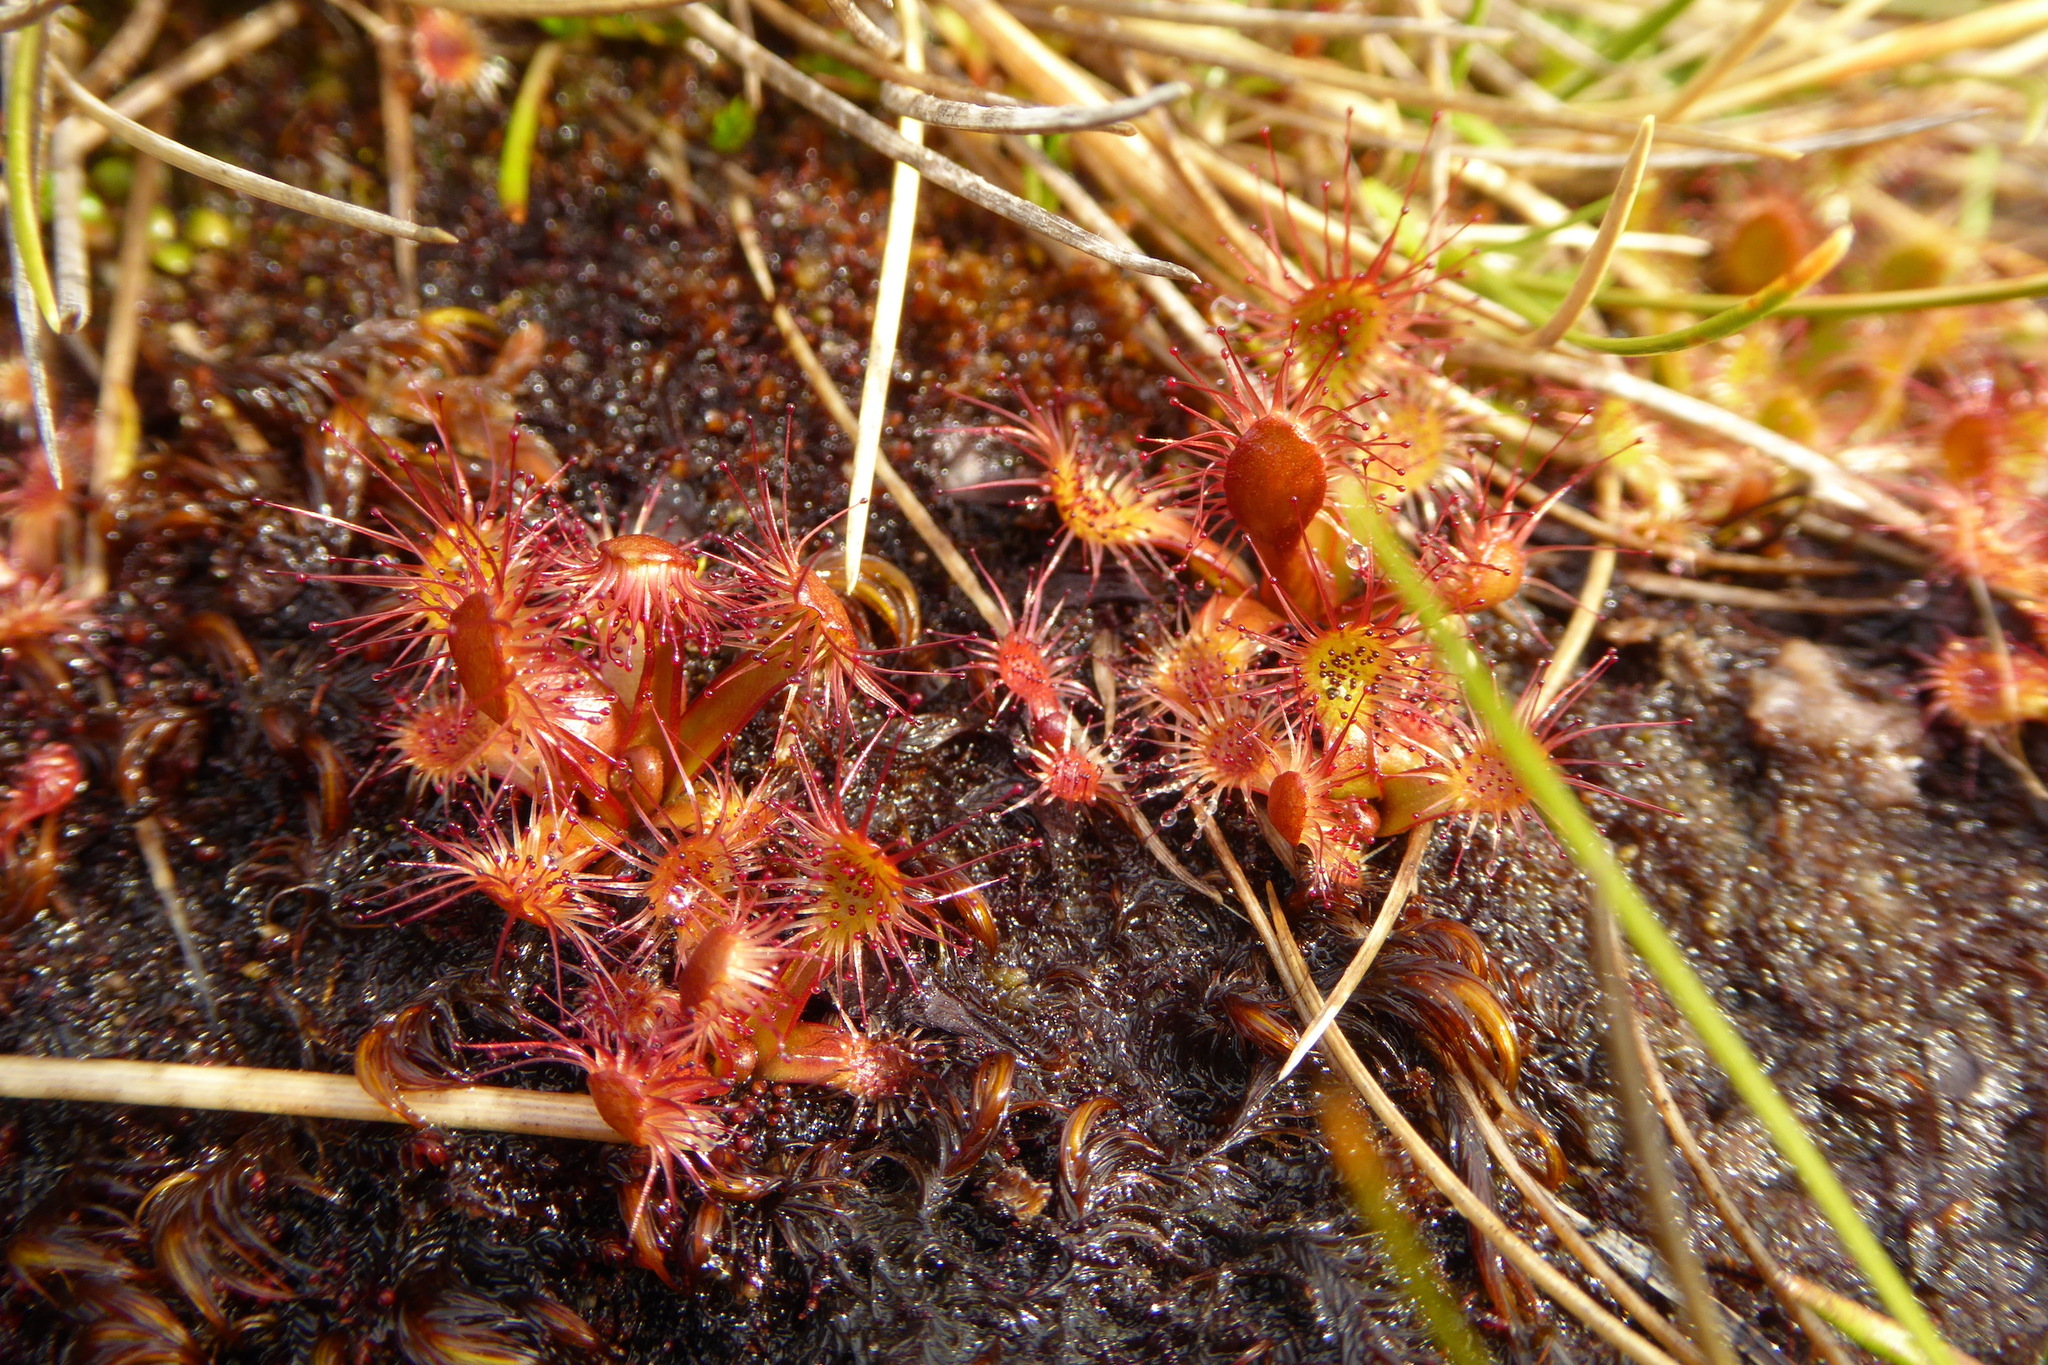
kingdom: Plantae
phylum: Tracheophyta
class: Magnoliopsida
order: Caryophyllales
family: Droseraceae
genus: Drosera
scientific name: Drosera stenopetala
